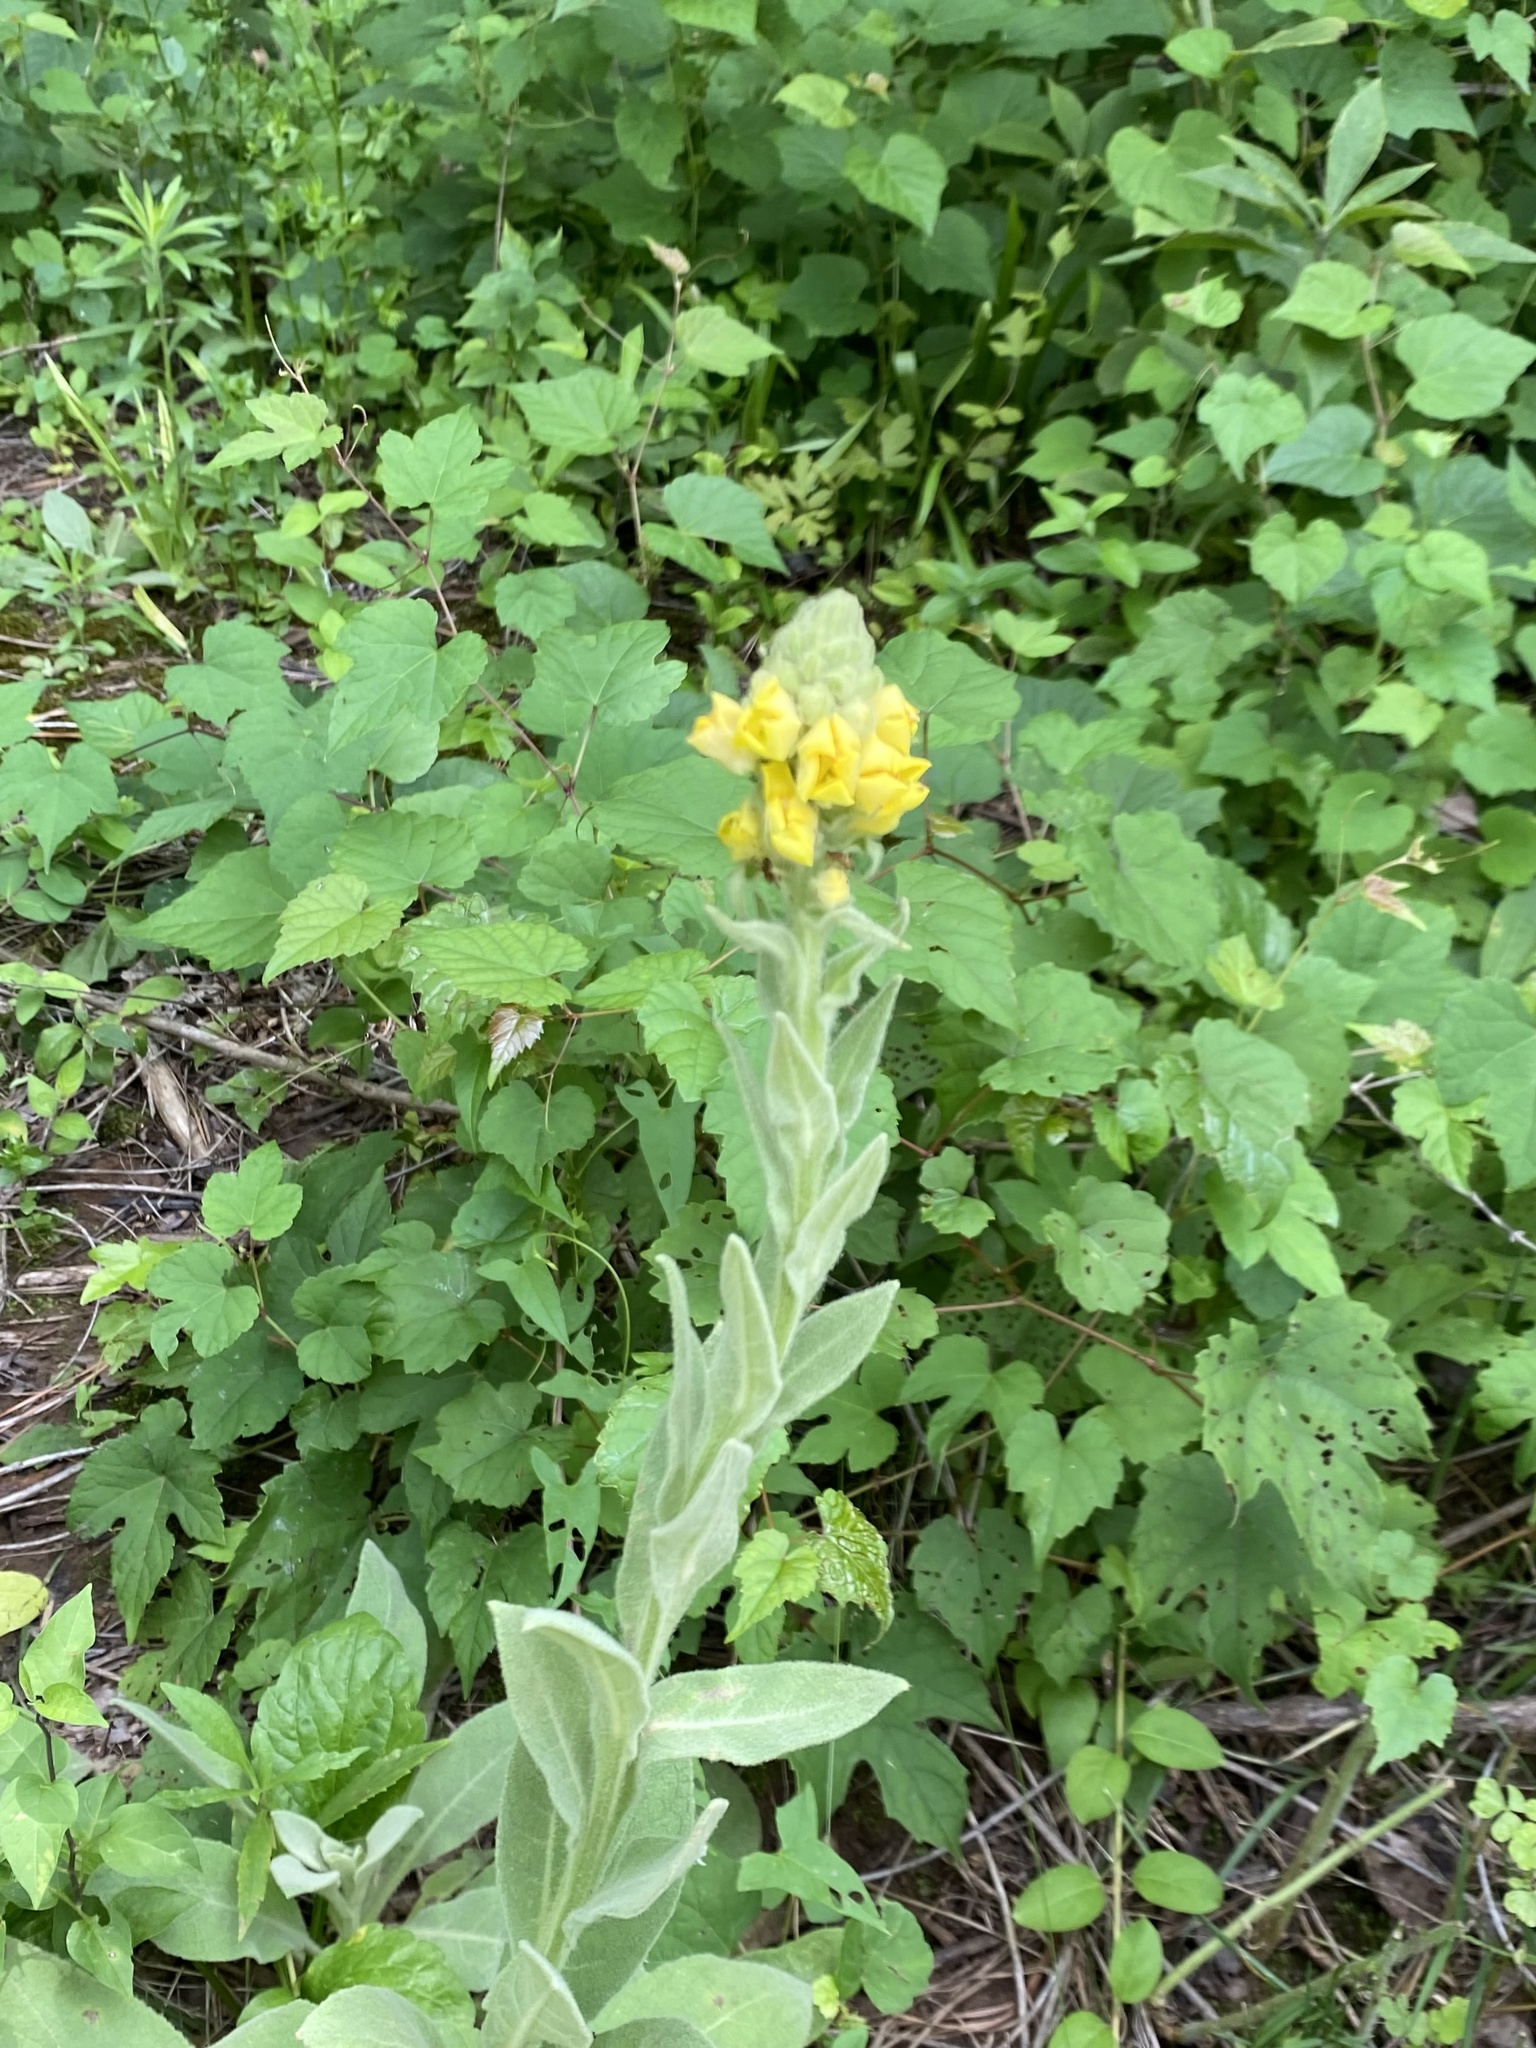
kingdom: Plantae
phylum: Tracheophyta
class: Magnoliopsida
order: Lamiales
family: Scrophulariaceae
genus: Verbascum
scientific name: Verbascum thapsus
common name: Common mullein
